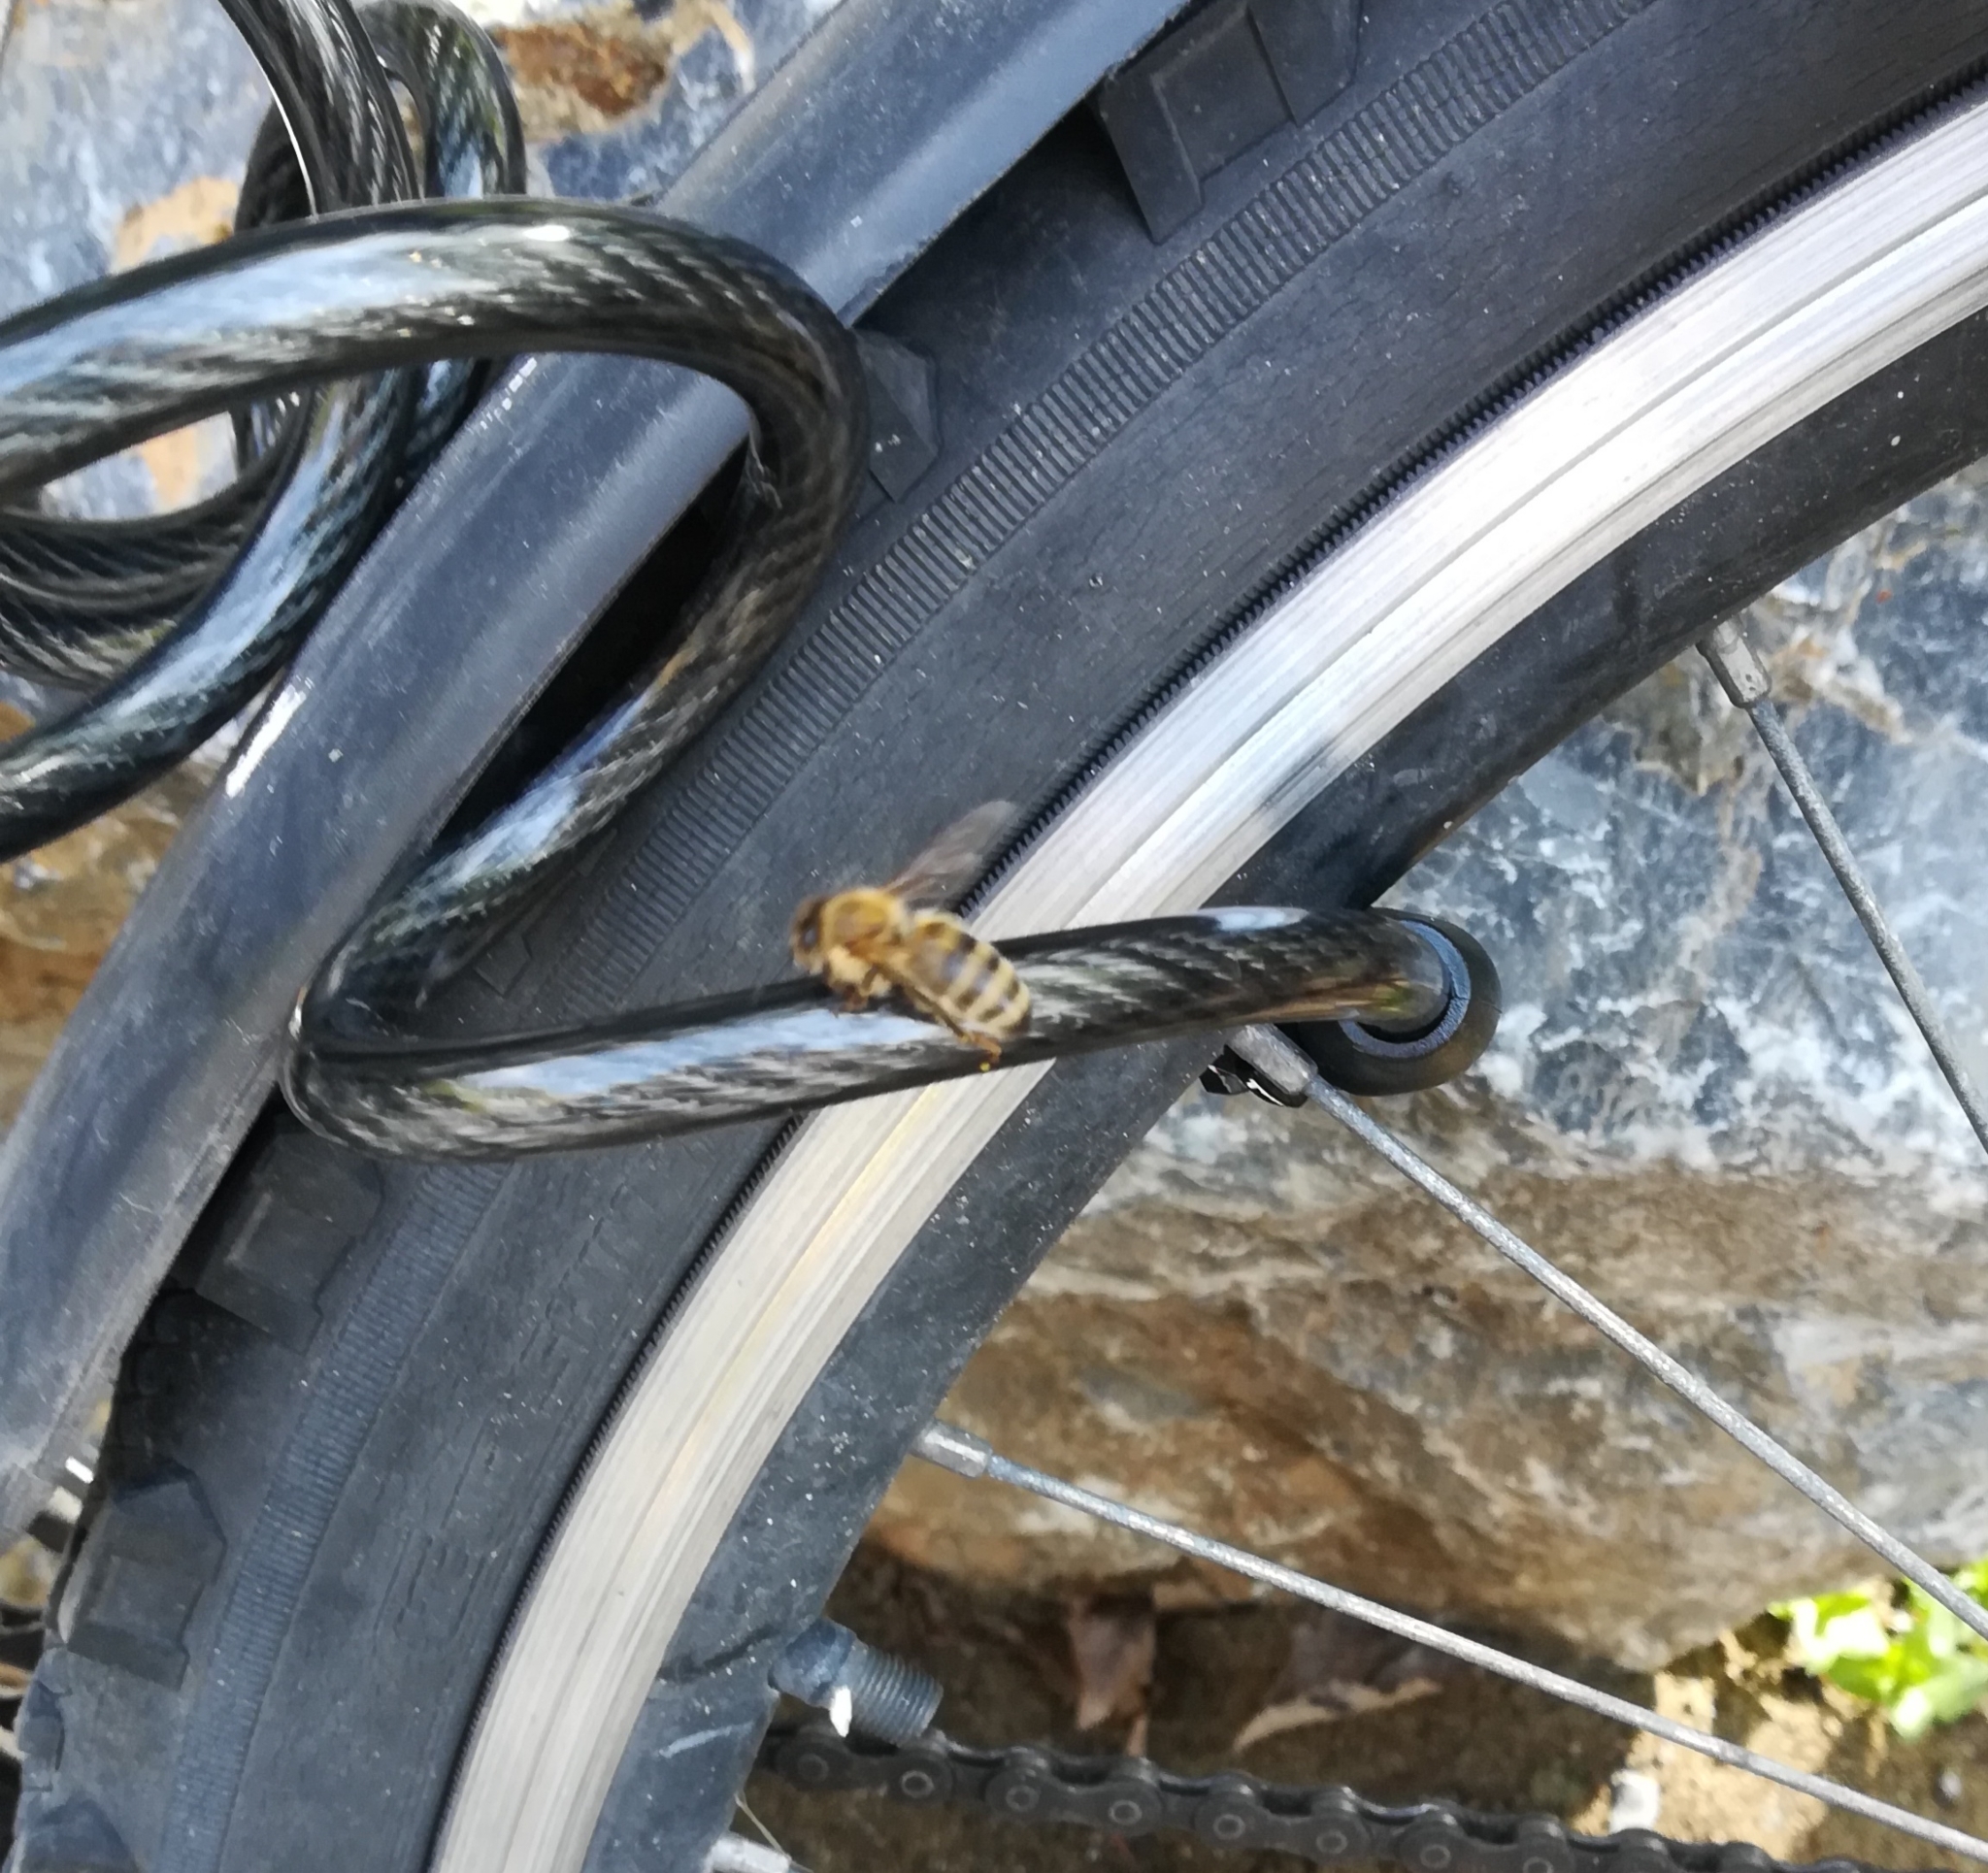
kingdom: Animalia
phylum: Arthropoda
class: Insecta
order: Hymenoptera
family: Apidae
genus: Apis
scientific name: Apis mellifera
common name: Honey bee
